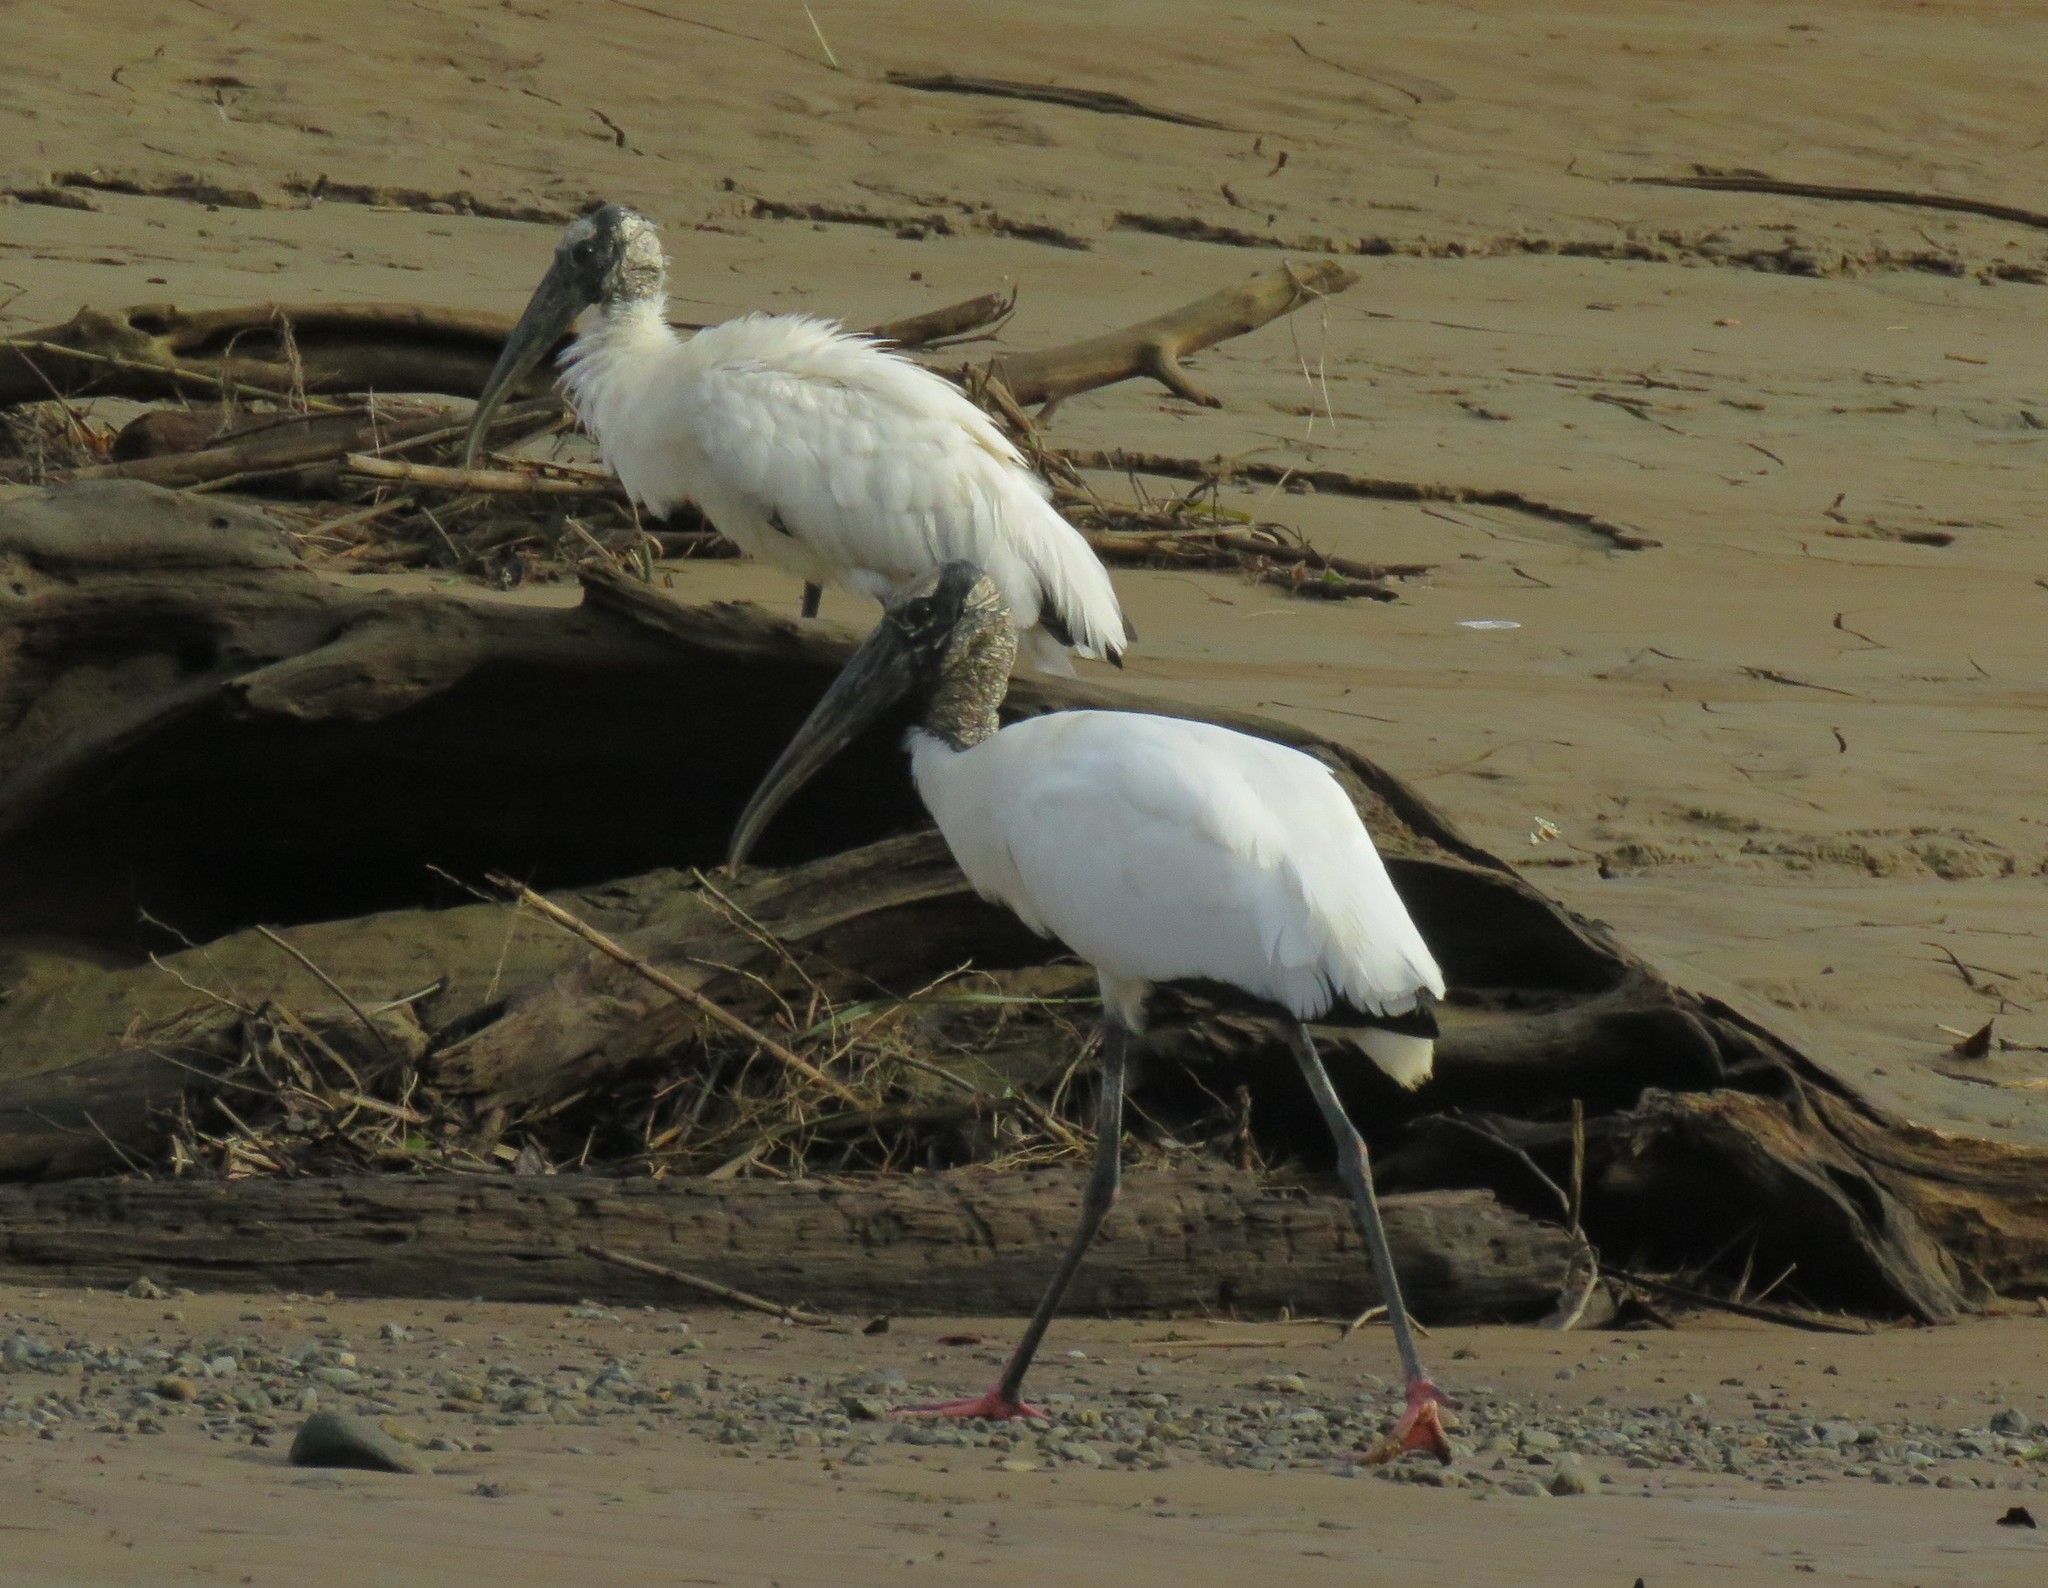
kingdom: Animalia
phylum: Chordata
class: Aves
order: Ciconiiformes
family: Ciconiidae
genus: Mycteria
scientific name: Mycteria americana
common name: Wood stork
